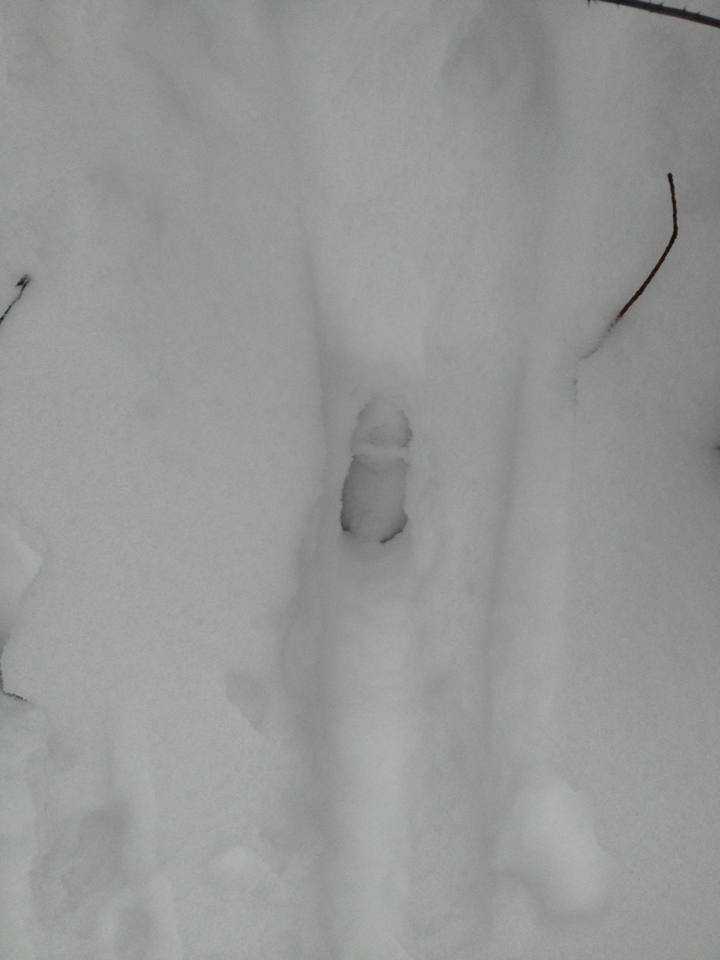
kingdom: Animalia
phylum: Chordata
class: Mammalia
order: Artiodactyla
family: Cervidae
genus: Odocoileus
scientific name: Odocoileus virginianus
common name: White-tailed deer
